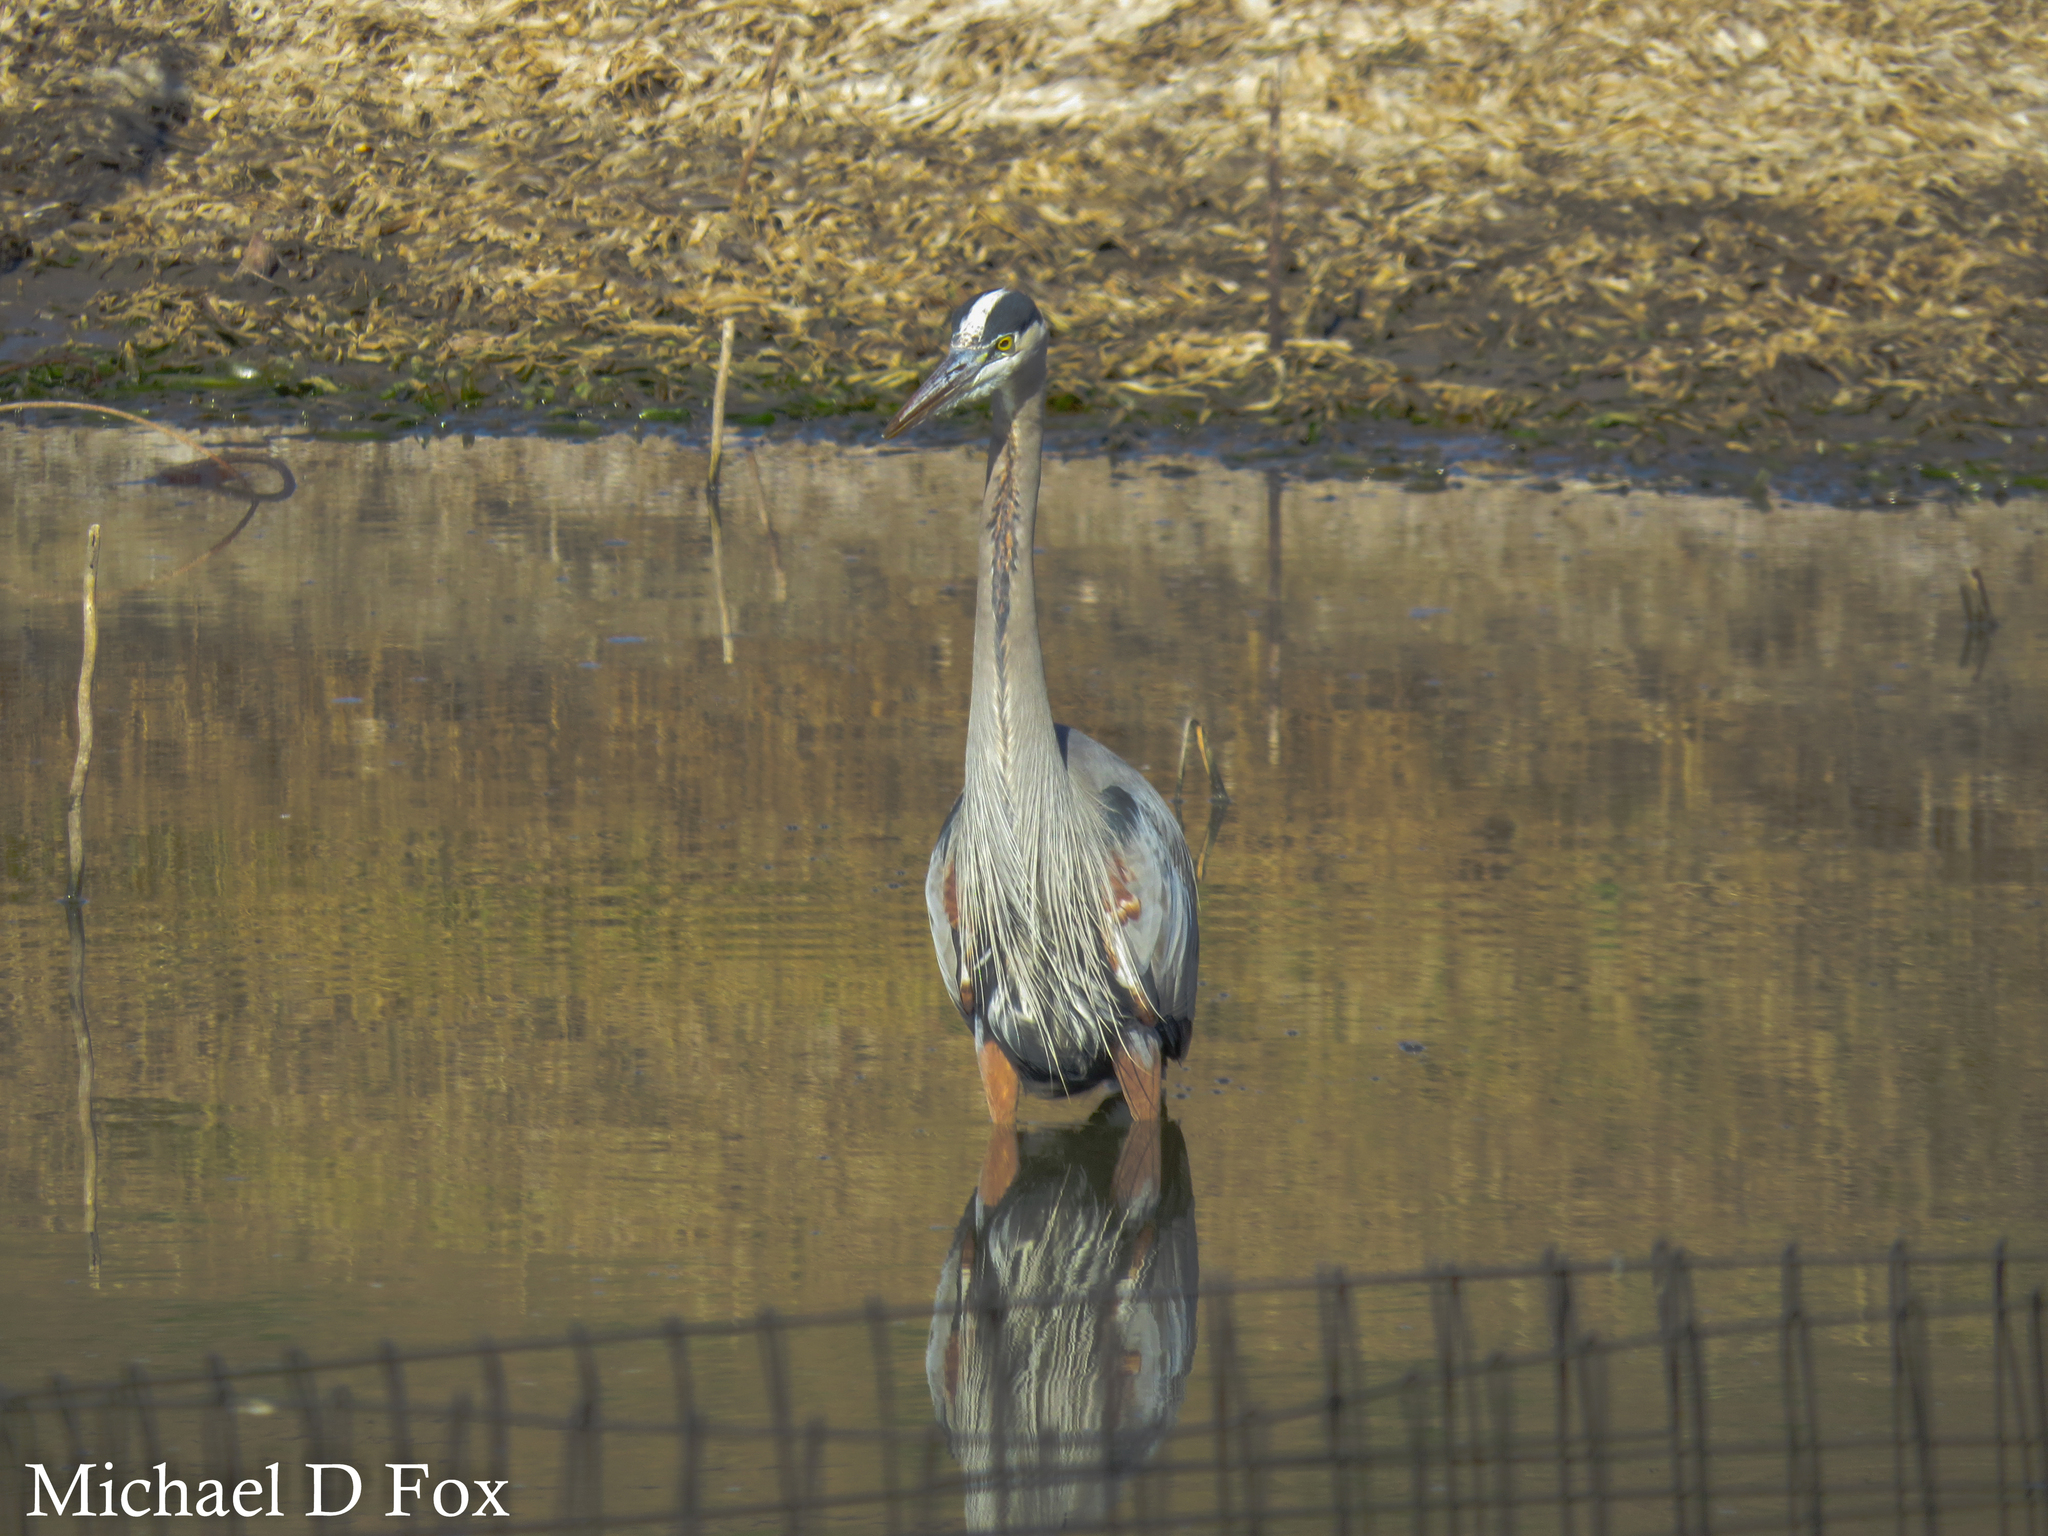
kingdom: Animalia
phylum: Chordata
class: Aves
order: Pelecaniformes
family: Ardeidae
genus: Ardea
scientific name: Ardea herodias
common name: Great blue heron
